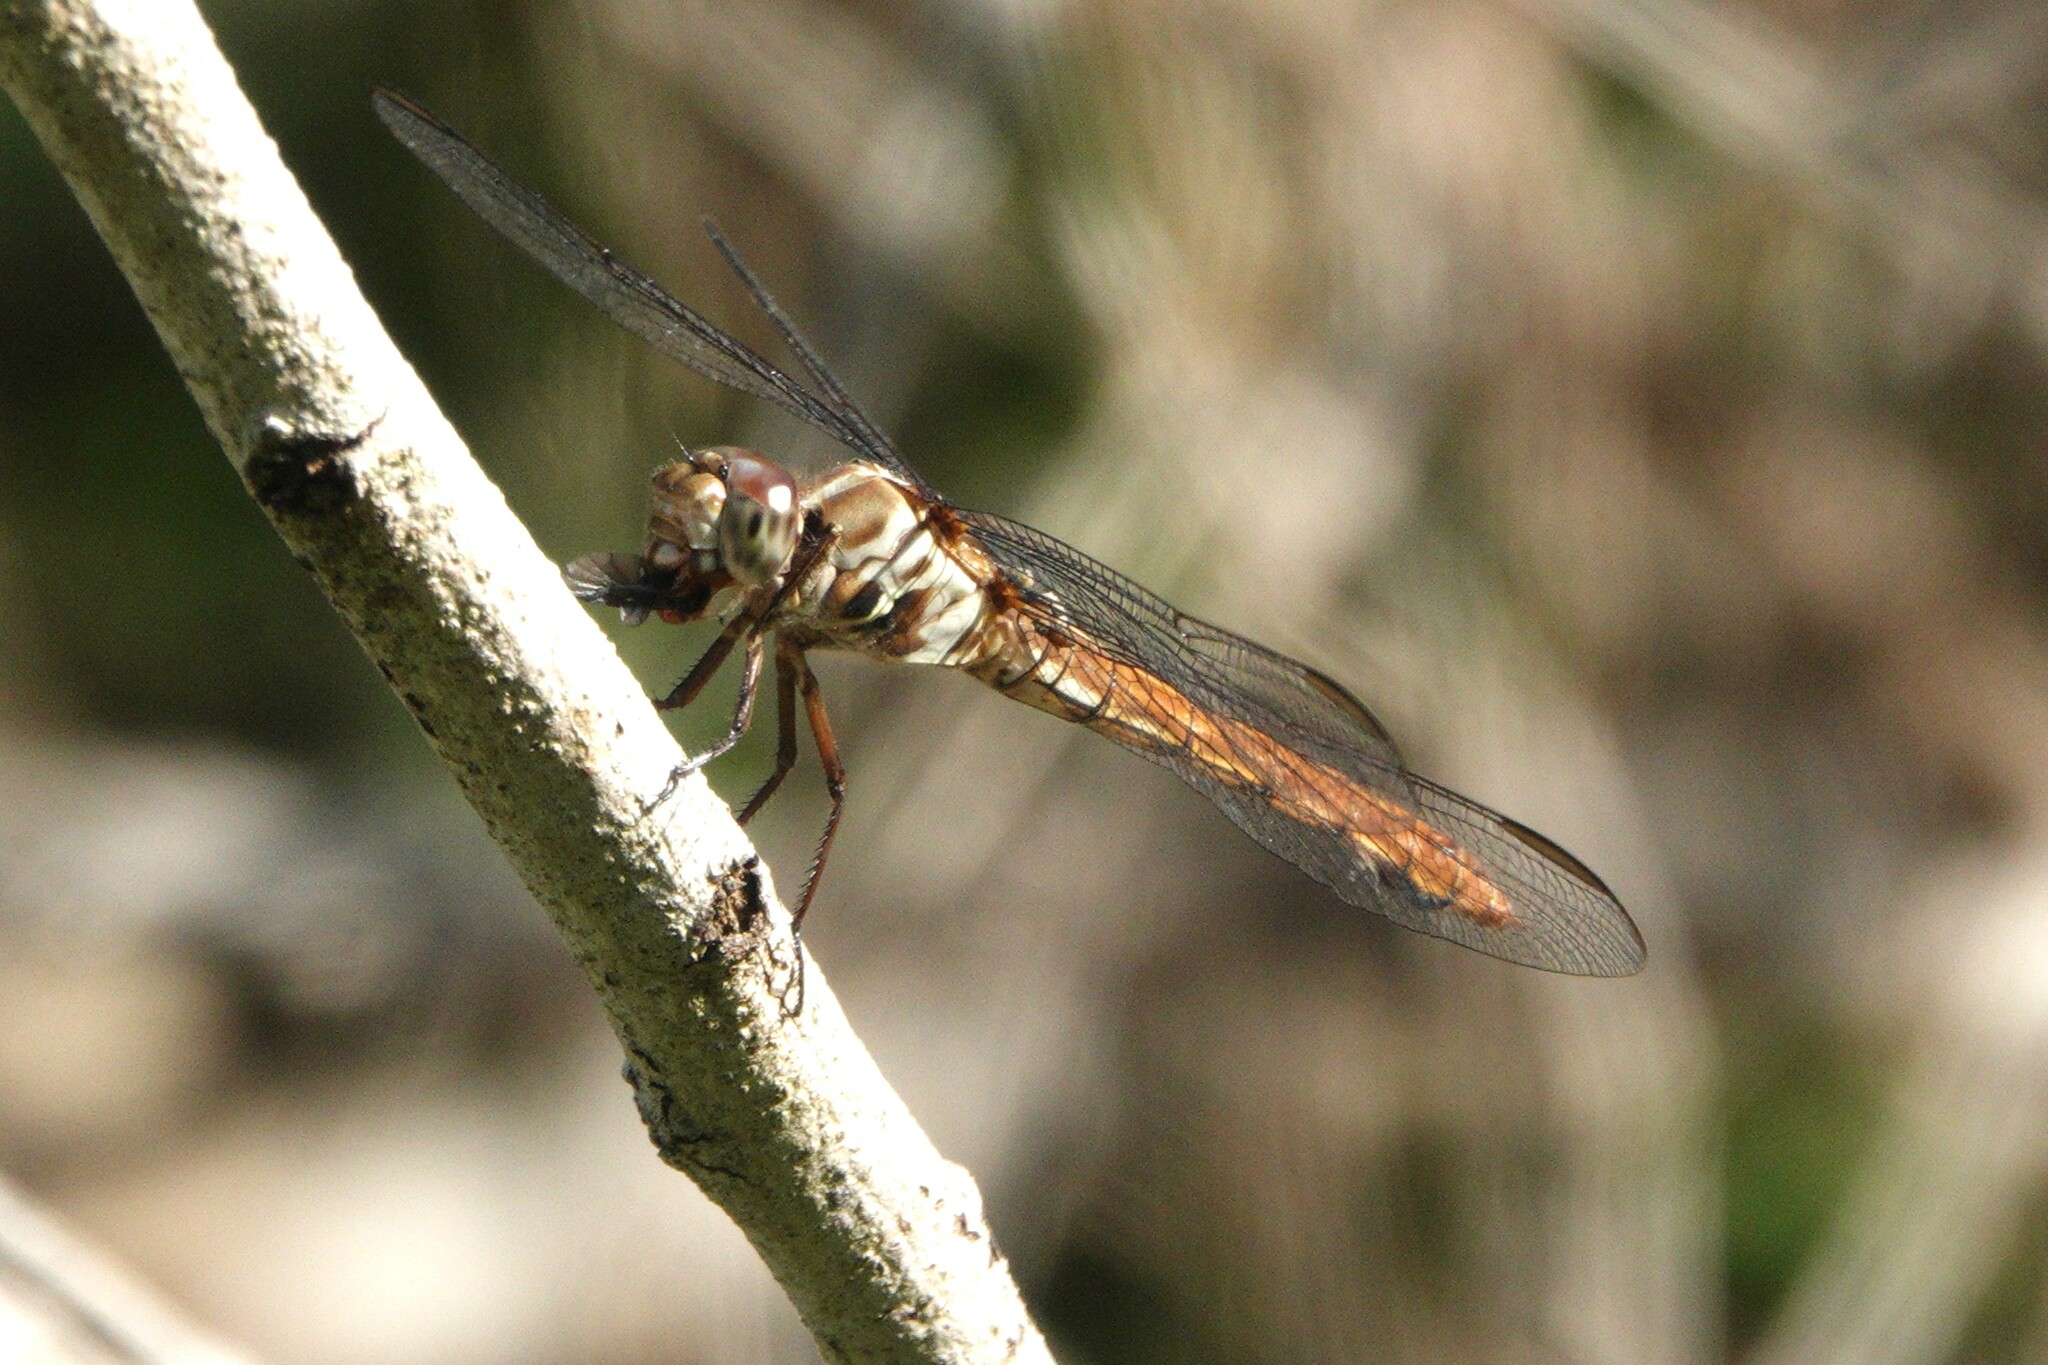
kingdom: Animalia
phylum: Arthropoda
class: Insecta
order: Odonata
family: Libellulidae
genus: Orthemis
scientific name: Orthemis ferruginea
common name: Roseate skimmer
